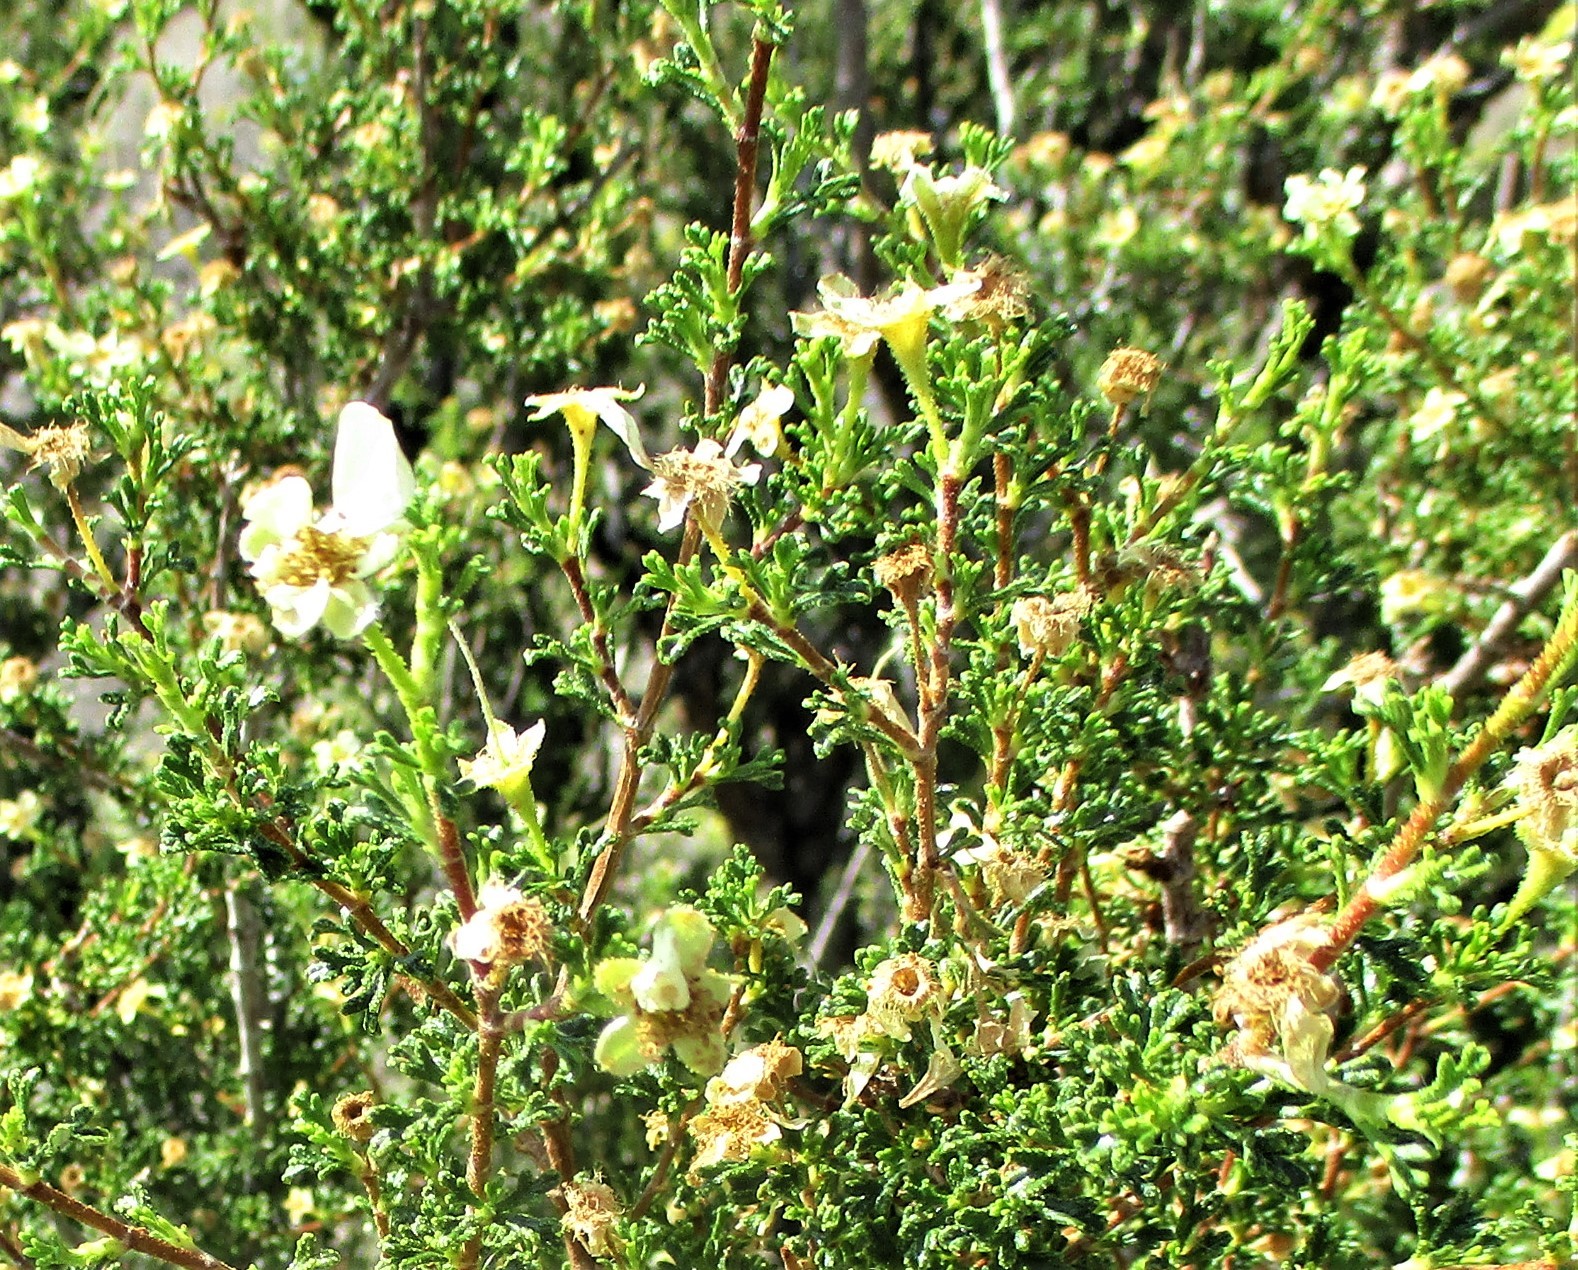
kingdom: Plantae
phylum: Tracheophyta
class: Magnoliopsida
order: Rosales
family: Rosaceae
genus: Purshia
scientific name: Purshia stansburiana
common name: Stansbury's cliffrose
